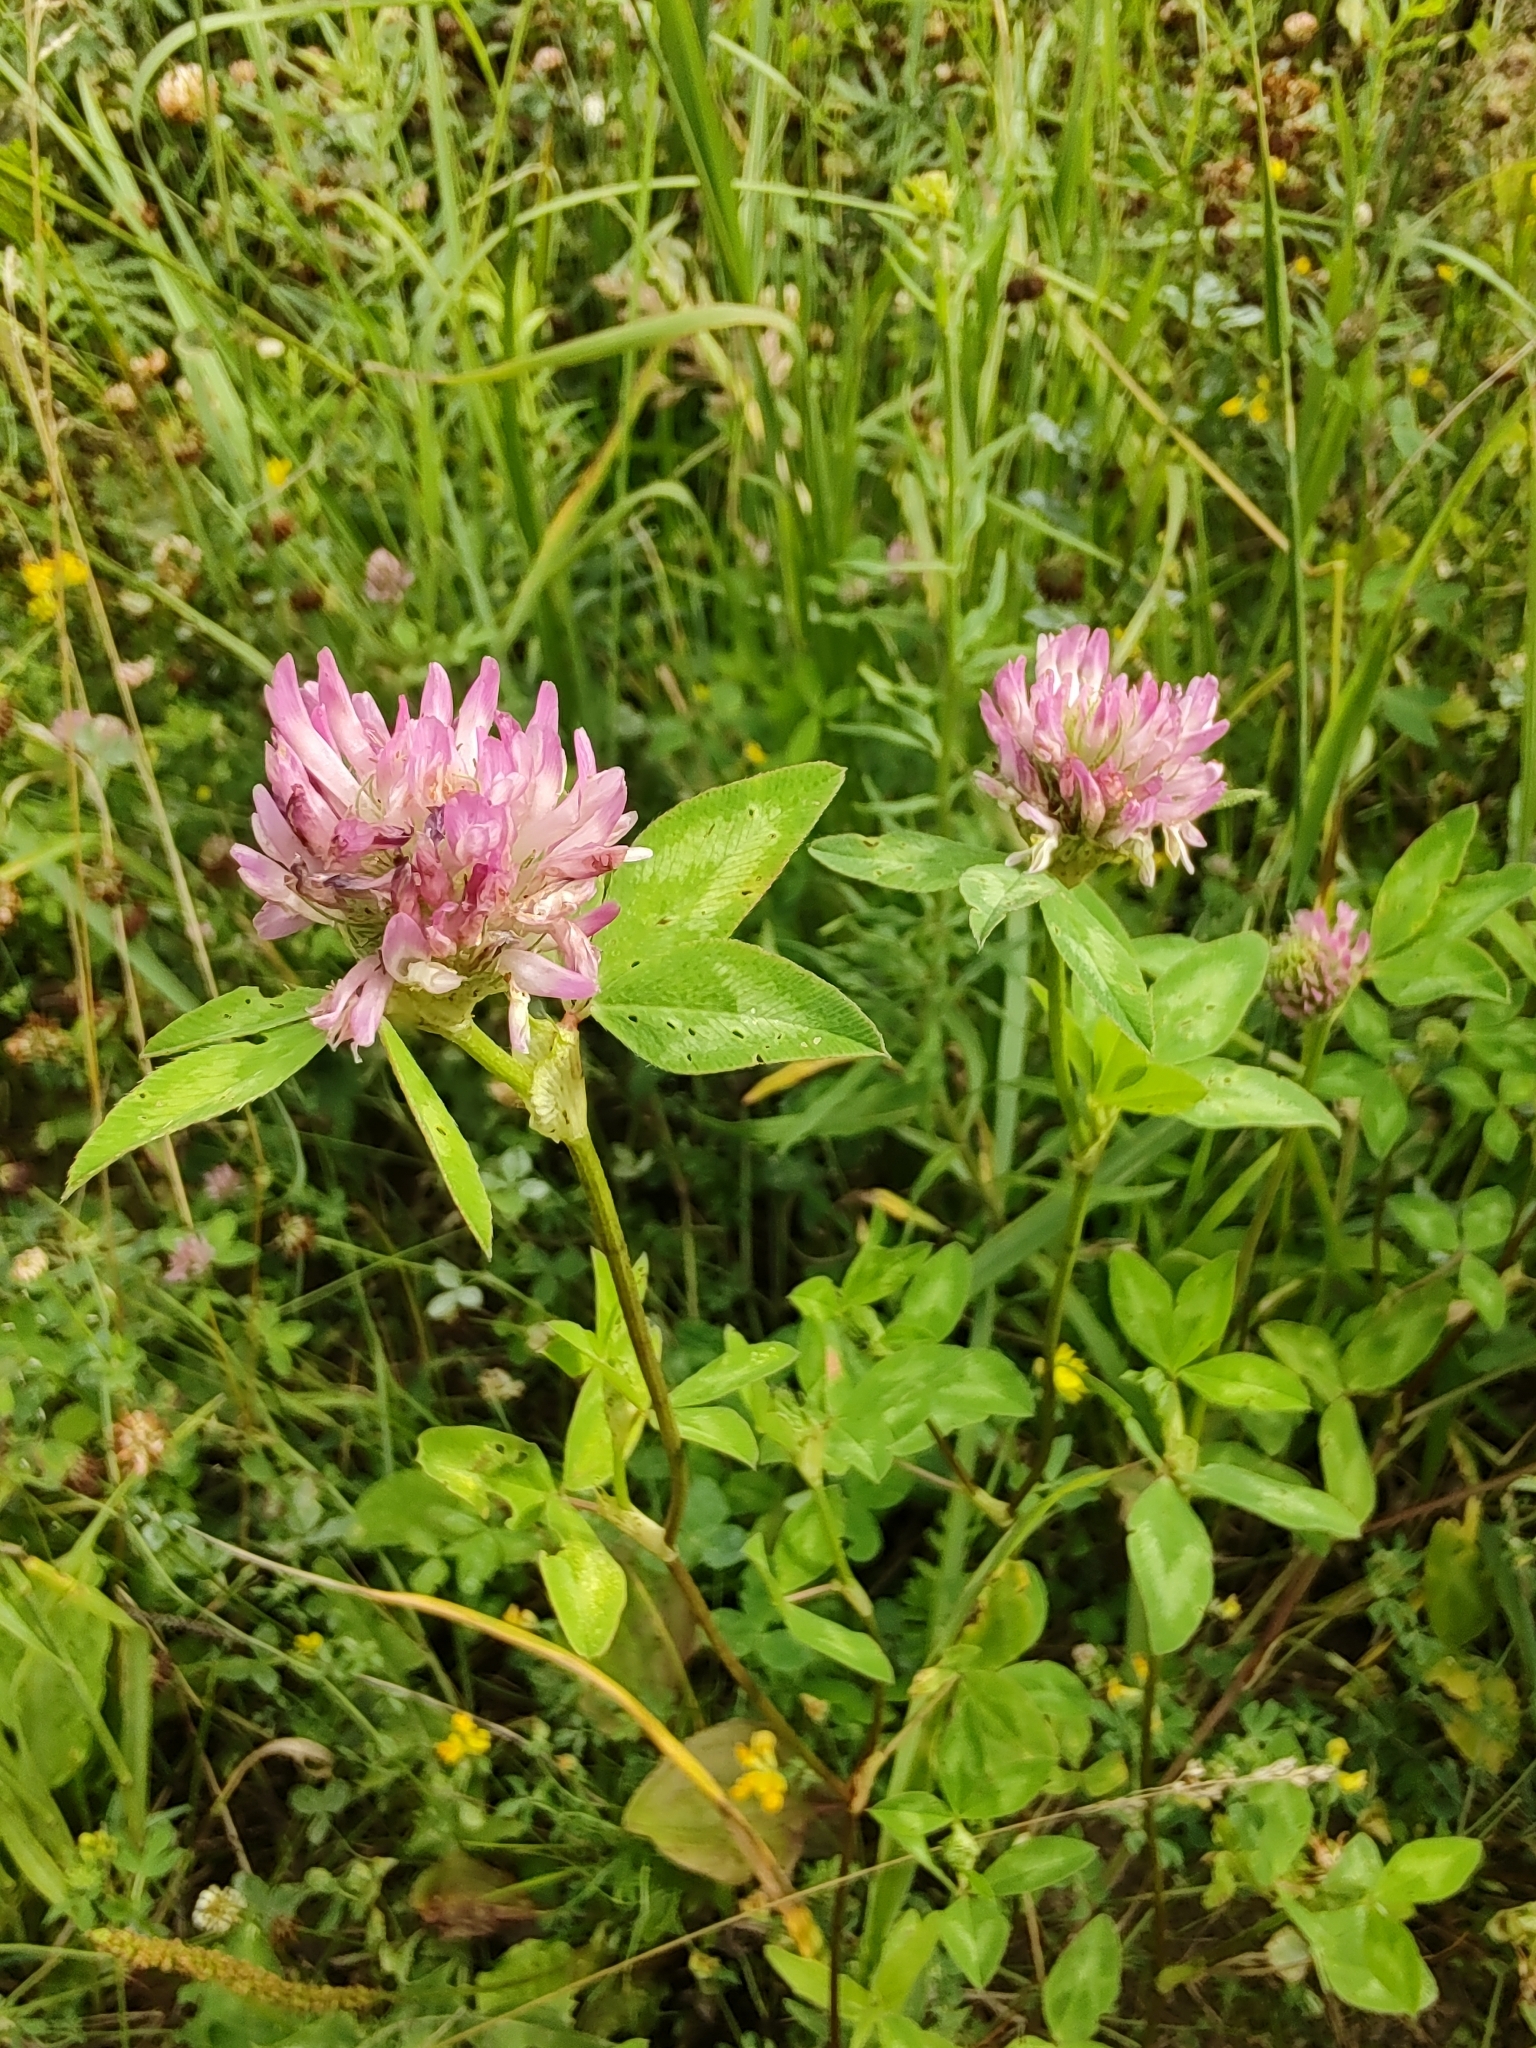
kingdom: Plantae
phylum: Tracheophyta
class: Magnoliopsida
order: Fabales
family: Fabaceae
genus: Trifolium
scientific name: Trifolium pratense
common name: Red clover
